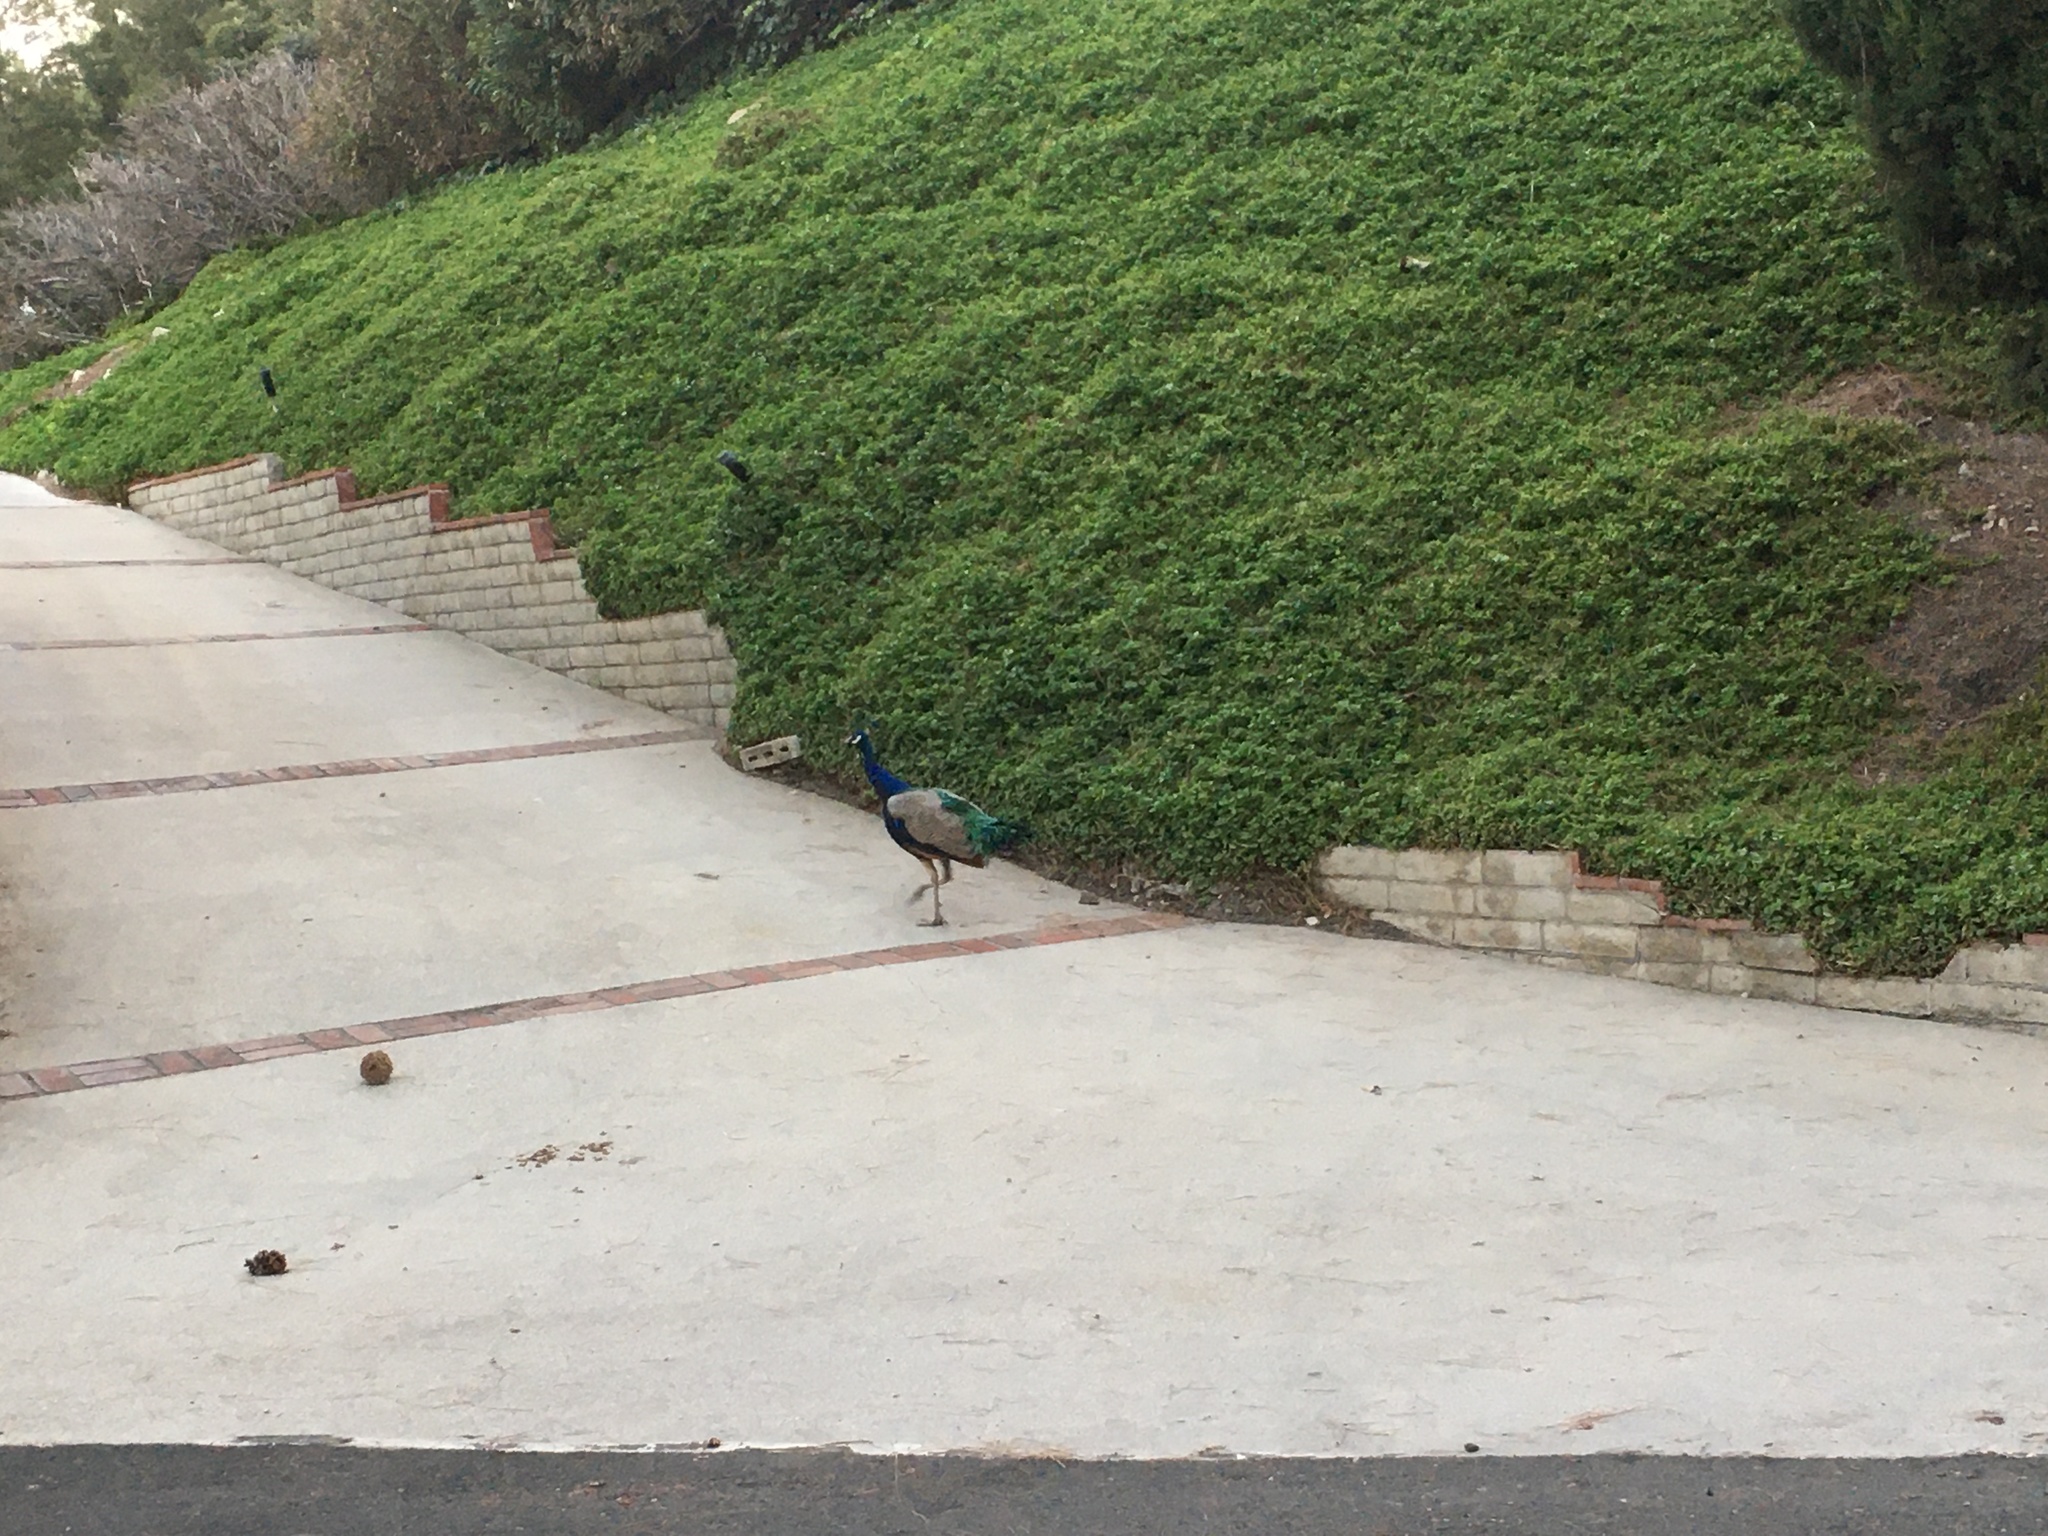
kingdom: Animalia
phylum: Chordata
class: Aves
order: Galliformes
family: Phasianidae
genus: Pavo
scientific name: Pavo cristatus
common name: Indian peafowl
